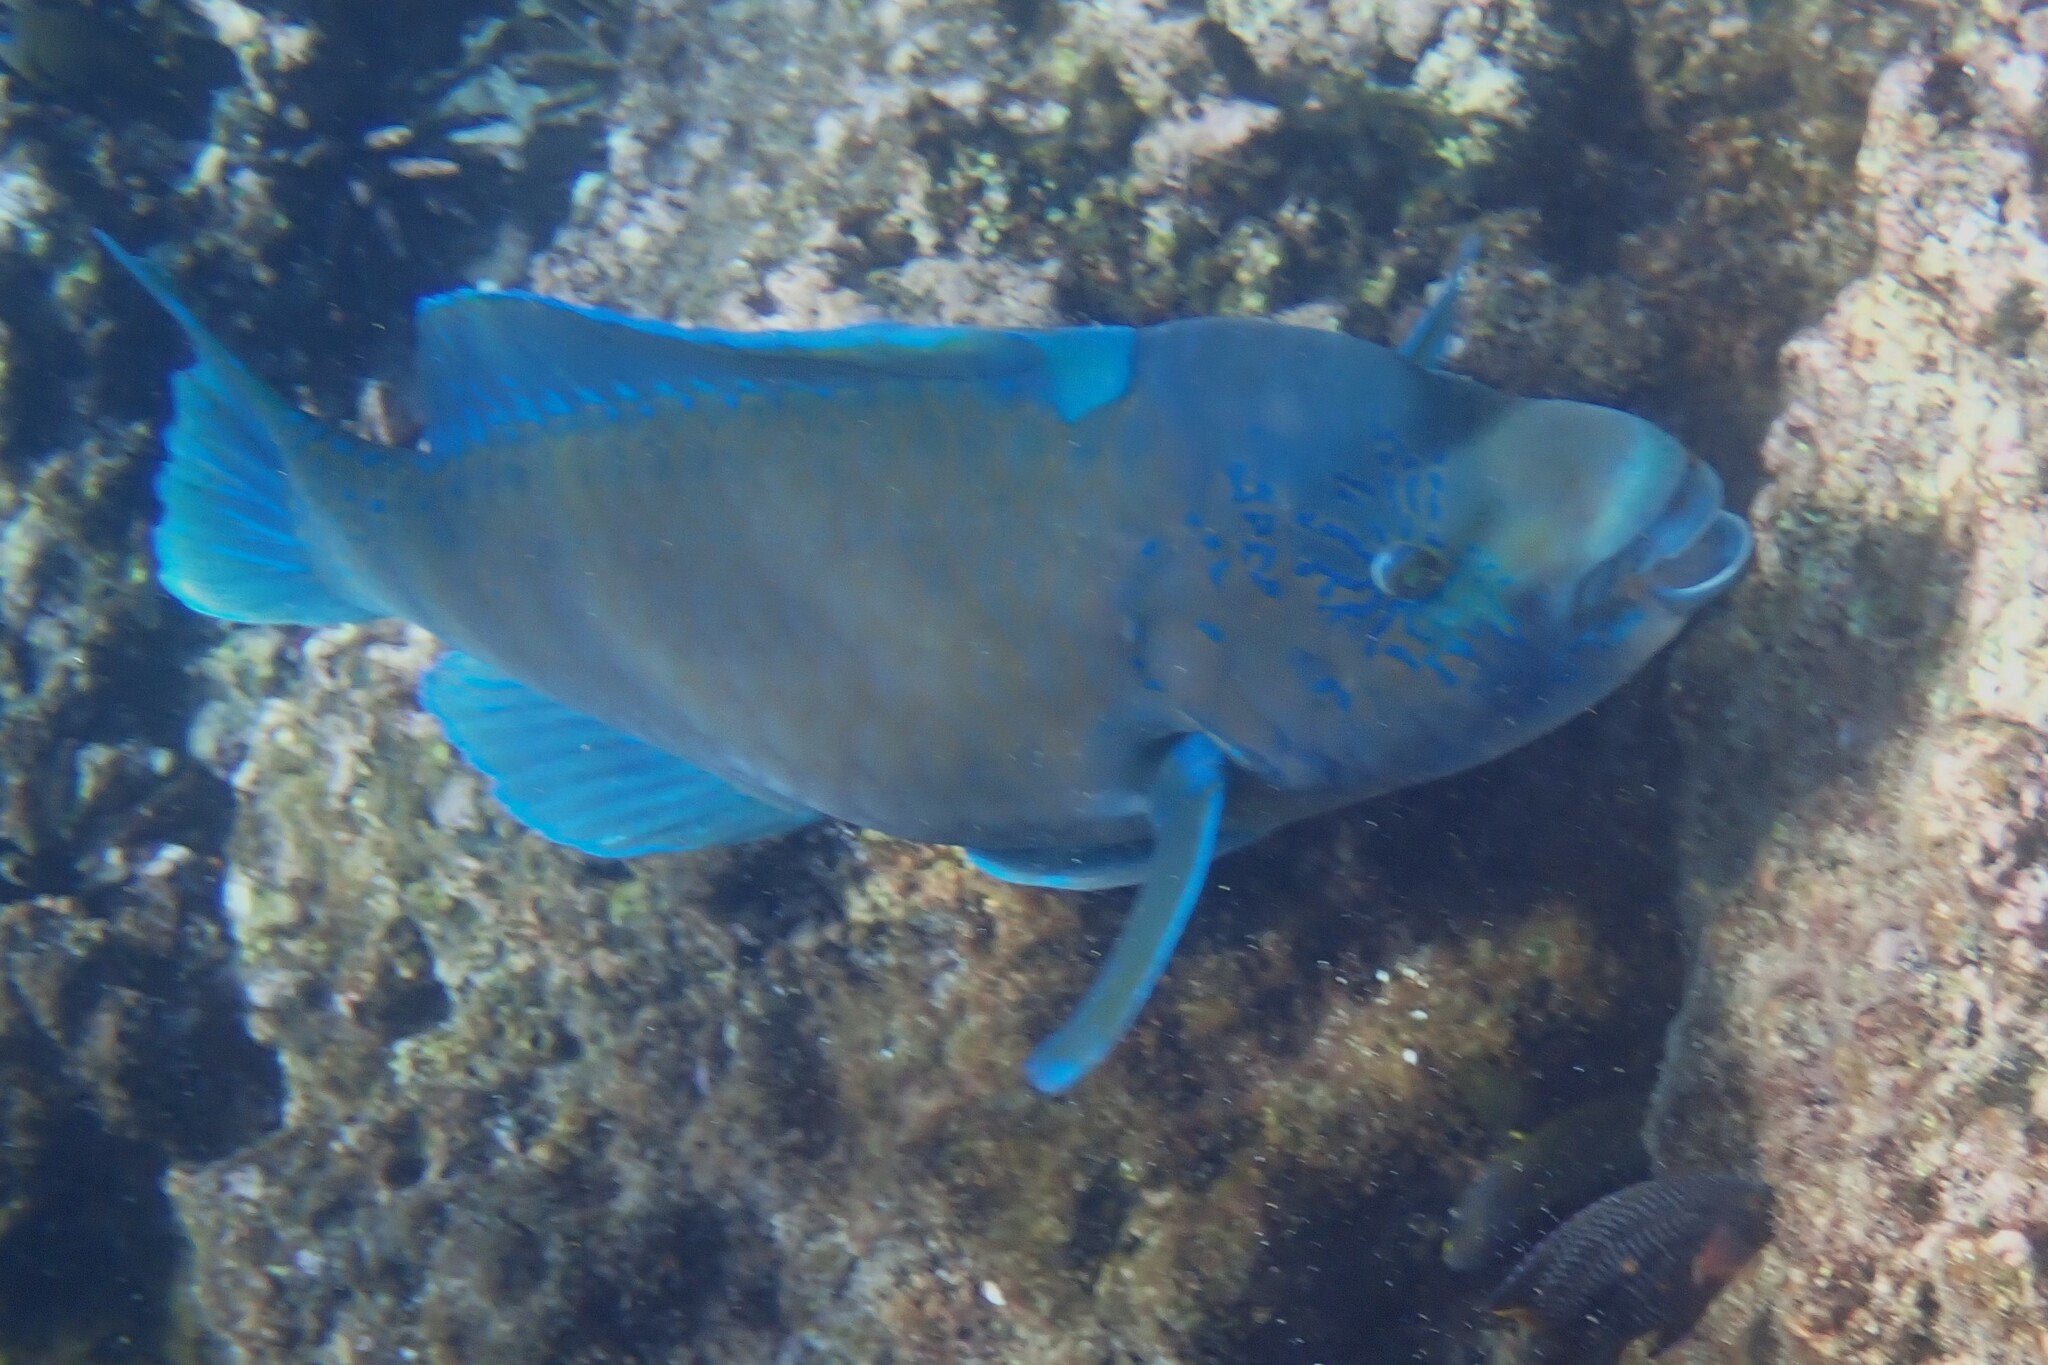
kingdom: Animalia
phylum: Chordata
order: Perciformes
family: Scaridae
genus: Scarus
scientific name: Scarus perrico
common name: Bumphead parrotfish
